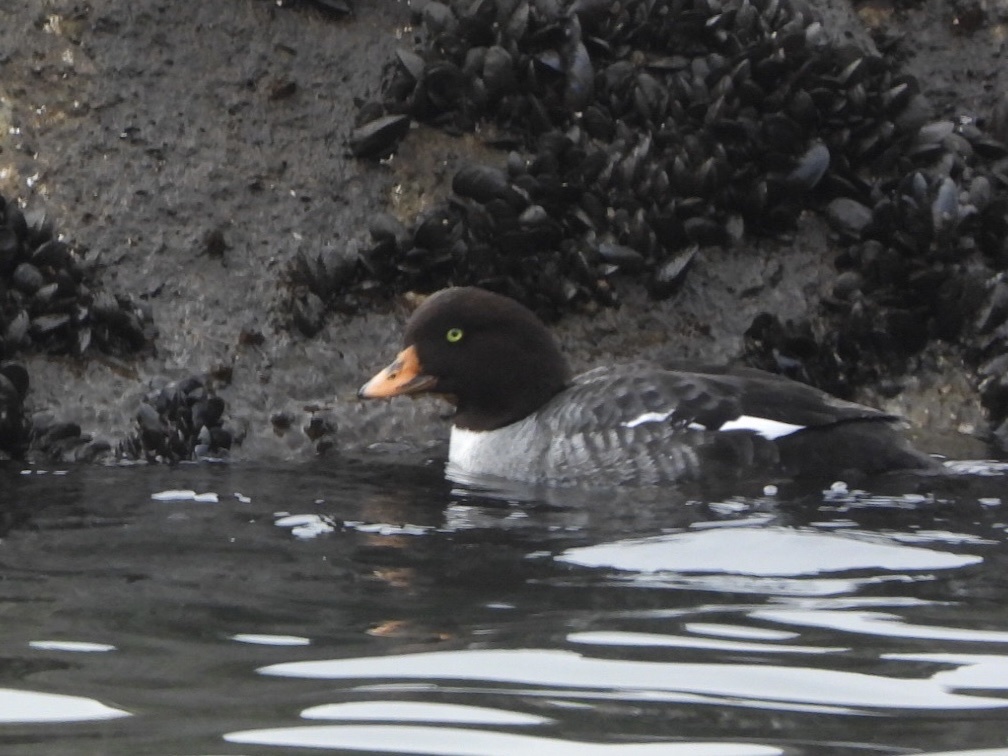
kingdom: Animalia
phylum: Chordata
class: Aves
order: Anseriformes
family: Anatidae
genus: Bucephala
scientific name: Bucephala islandica
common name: Barrow's goldeneye
